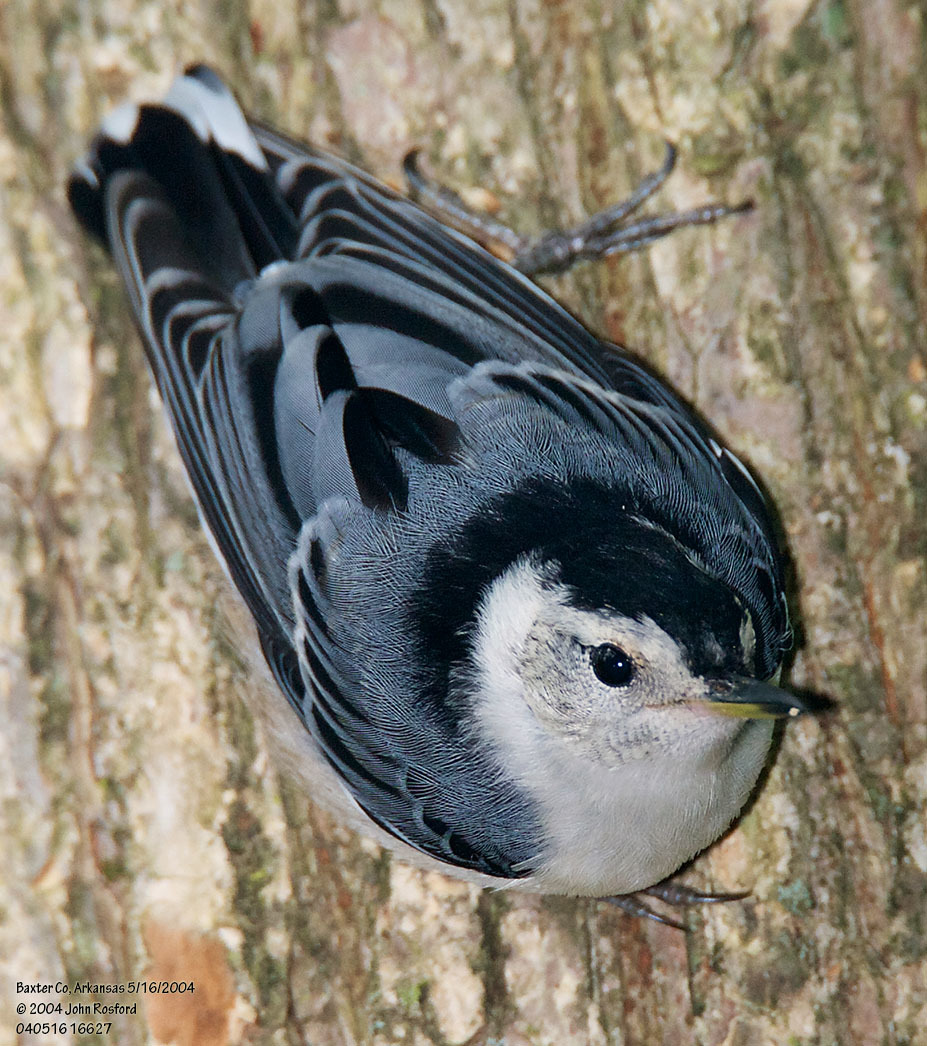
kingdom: Animalia
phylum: Chordata
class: Aves
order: Passeriformes
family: Sittidae
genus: Sitta
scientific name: Sitta carolinensis
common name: White-breasted nuthatch
